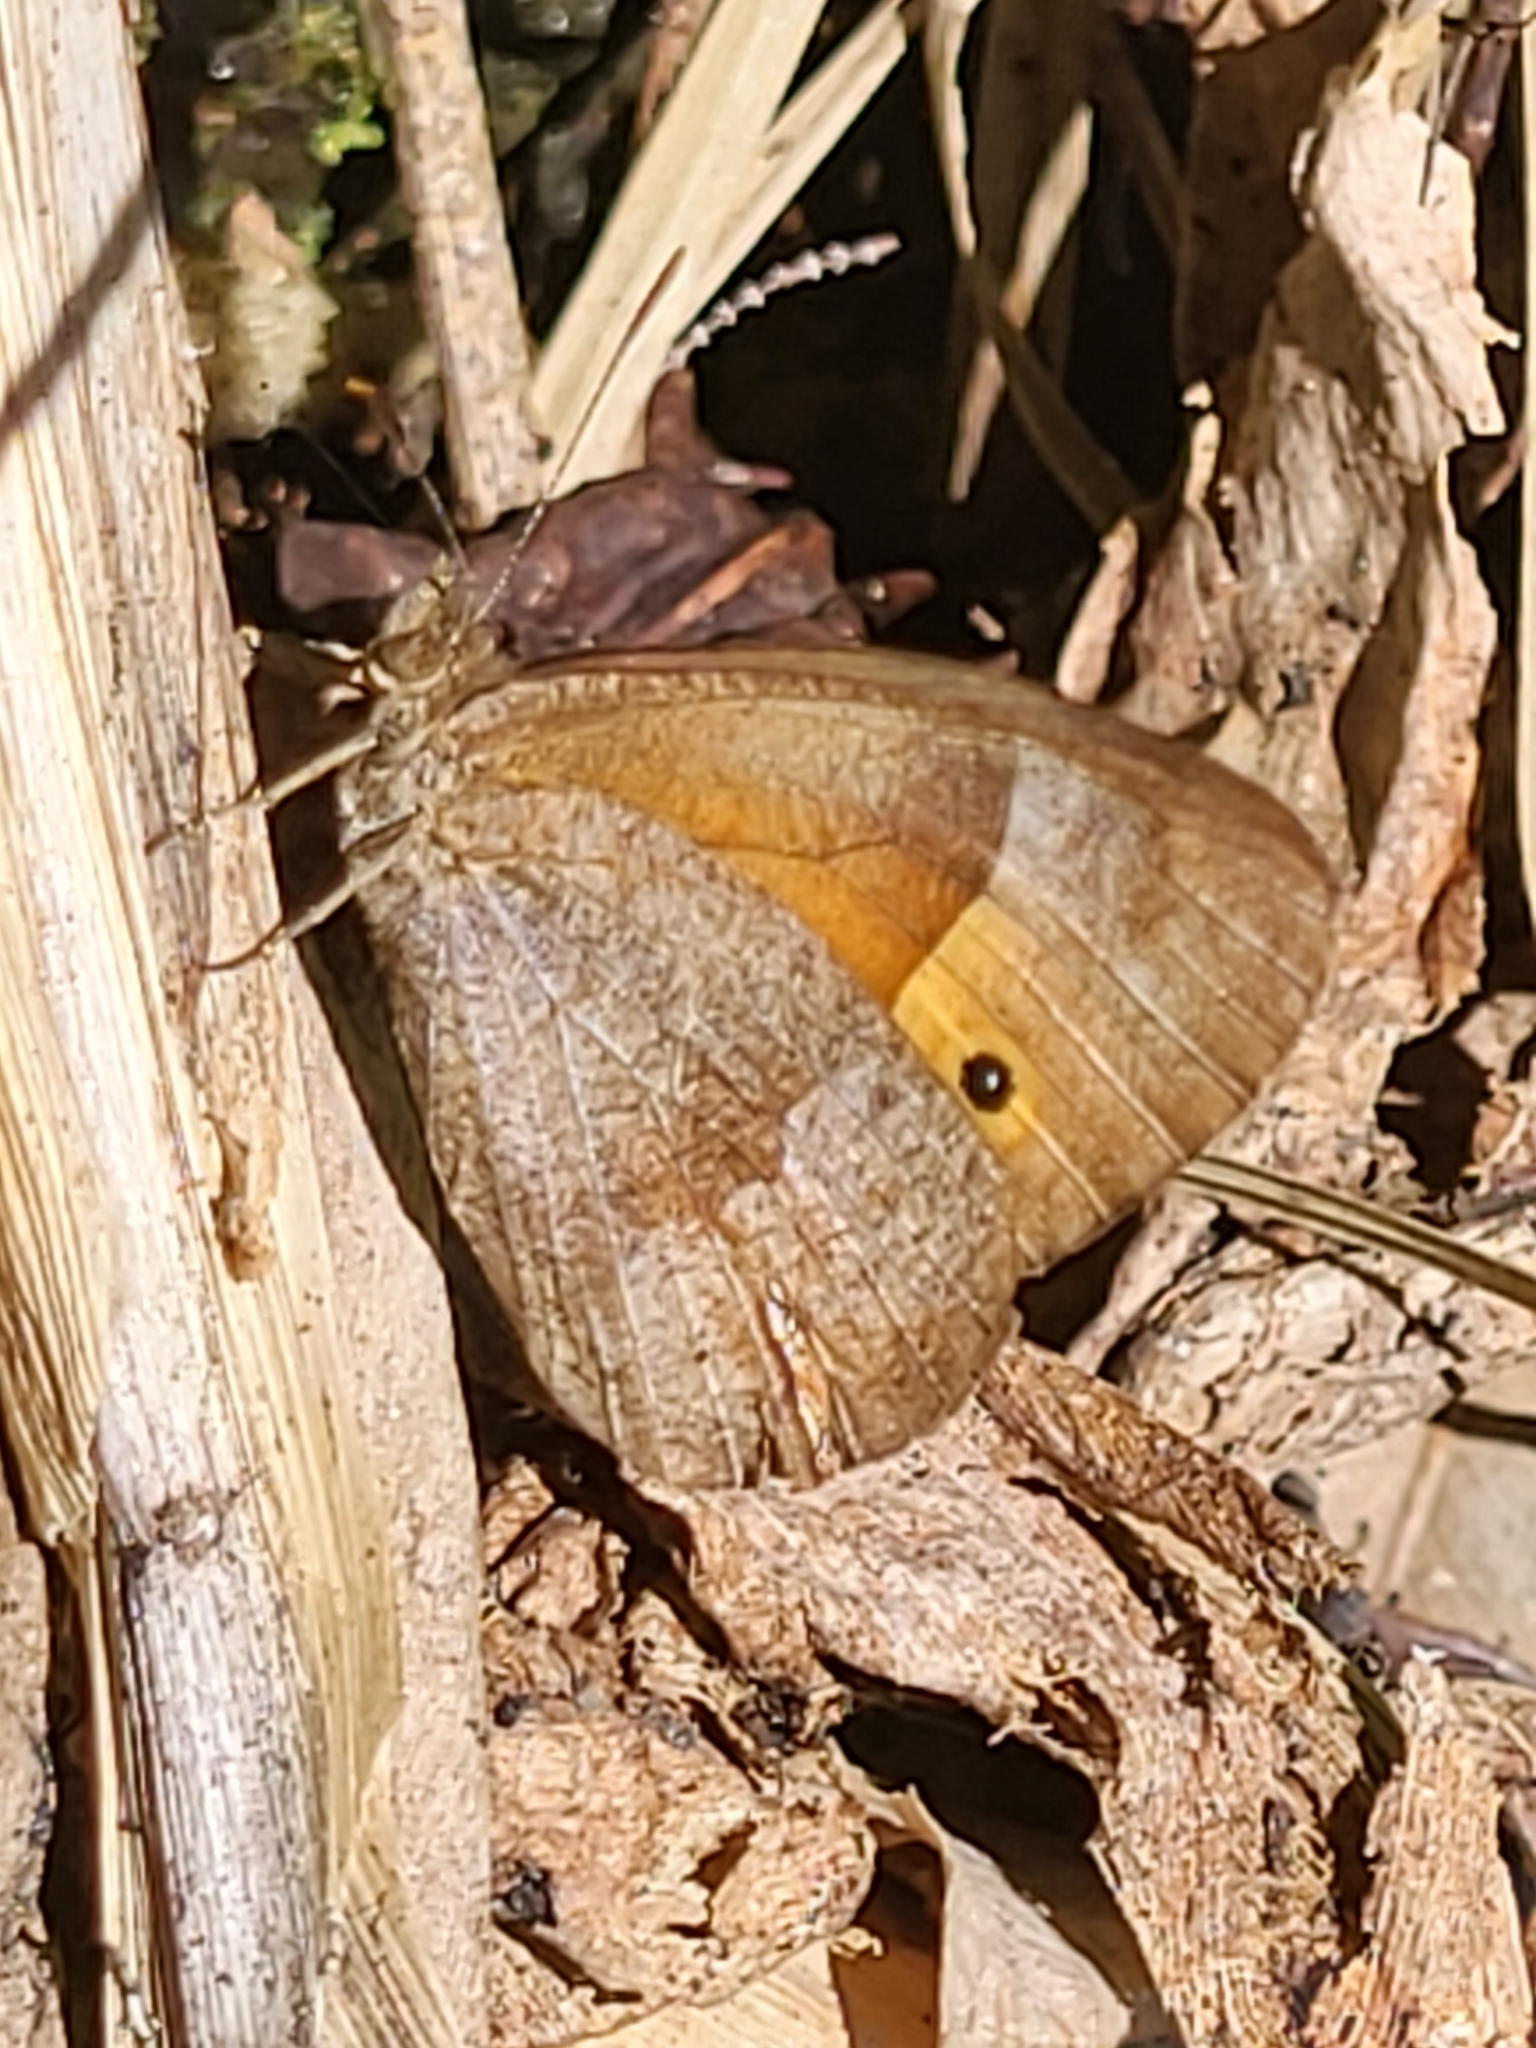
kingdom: Animalia
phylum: Arthropoda
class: Insecta
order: Lepidoptera
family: Nymphalidae
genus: Henotesia
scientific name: Henotesia narcissus
